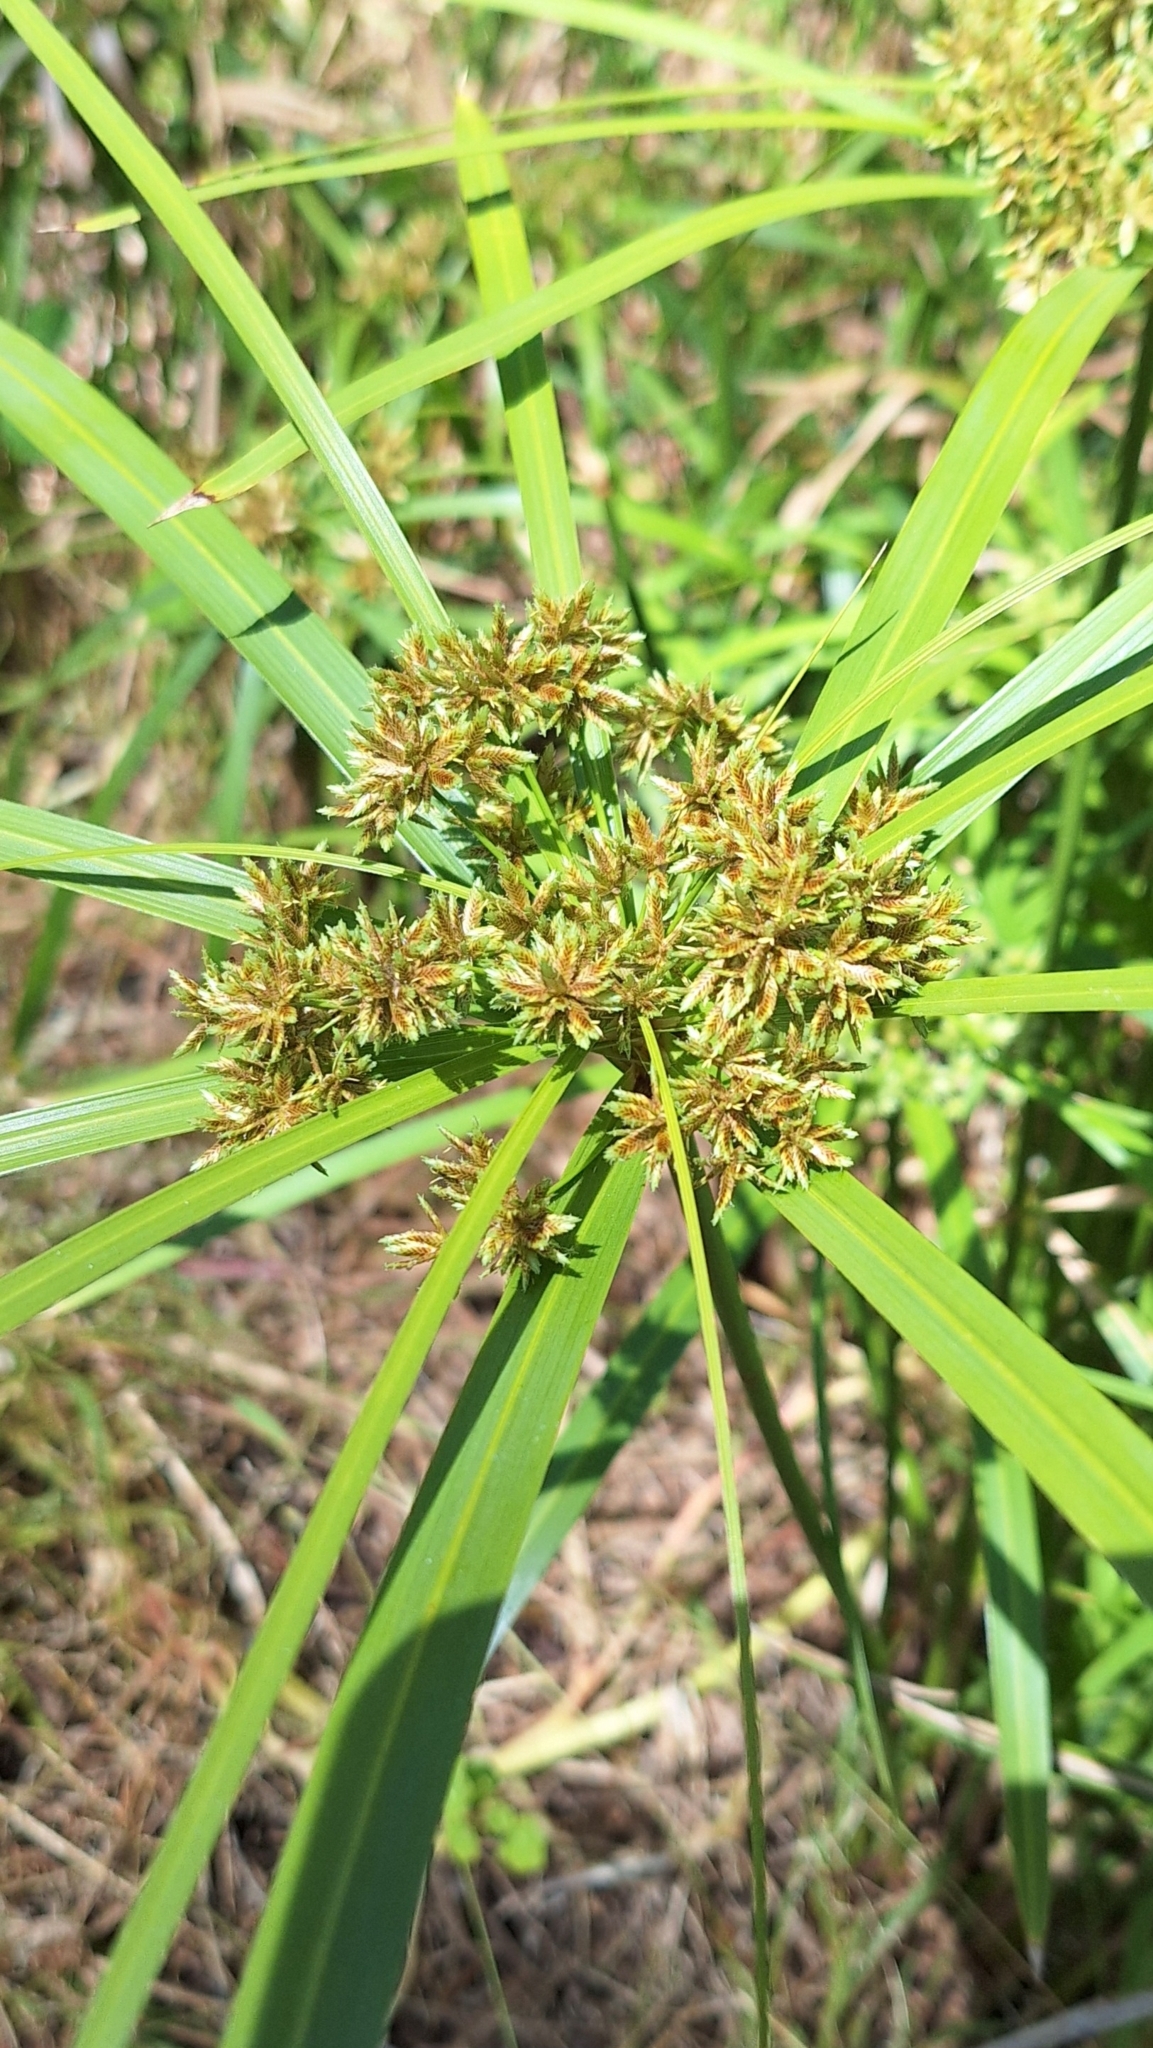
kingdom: Plantae
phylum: Tracheophyta
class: Liliopsida
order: Poales
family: Cyperaceae
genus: Cyperus
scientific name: Cyperus alternifolius
